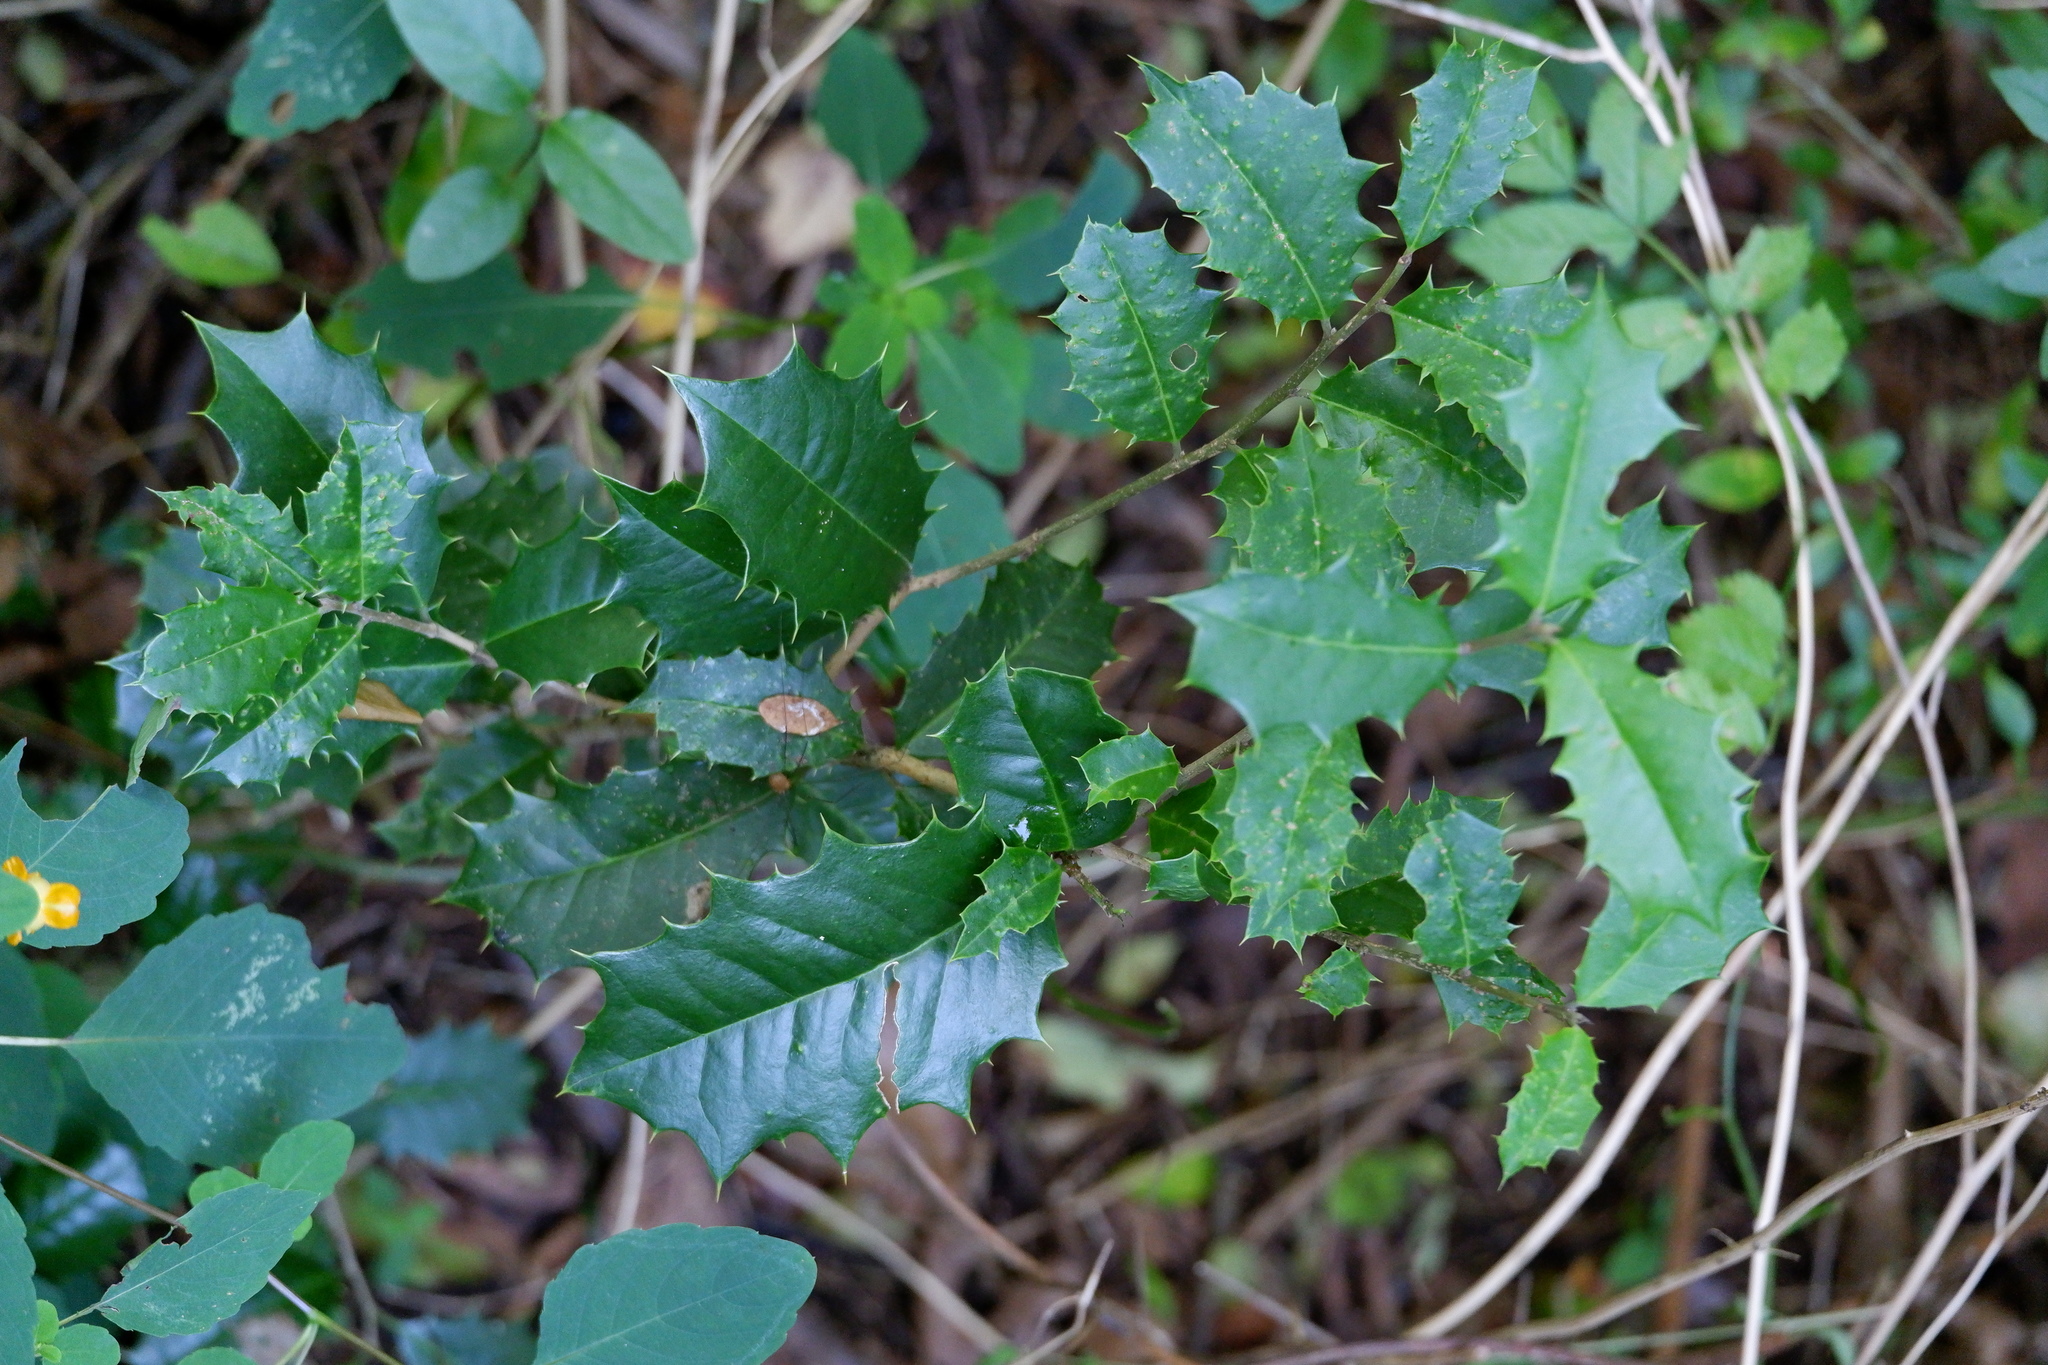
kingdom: Plantae
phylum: Tracheophyta
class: Magnoliopsida
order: Aquifoliales
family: Aquifoliaceae
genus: Ilex
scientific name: Ilex opaca
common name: American holly
